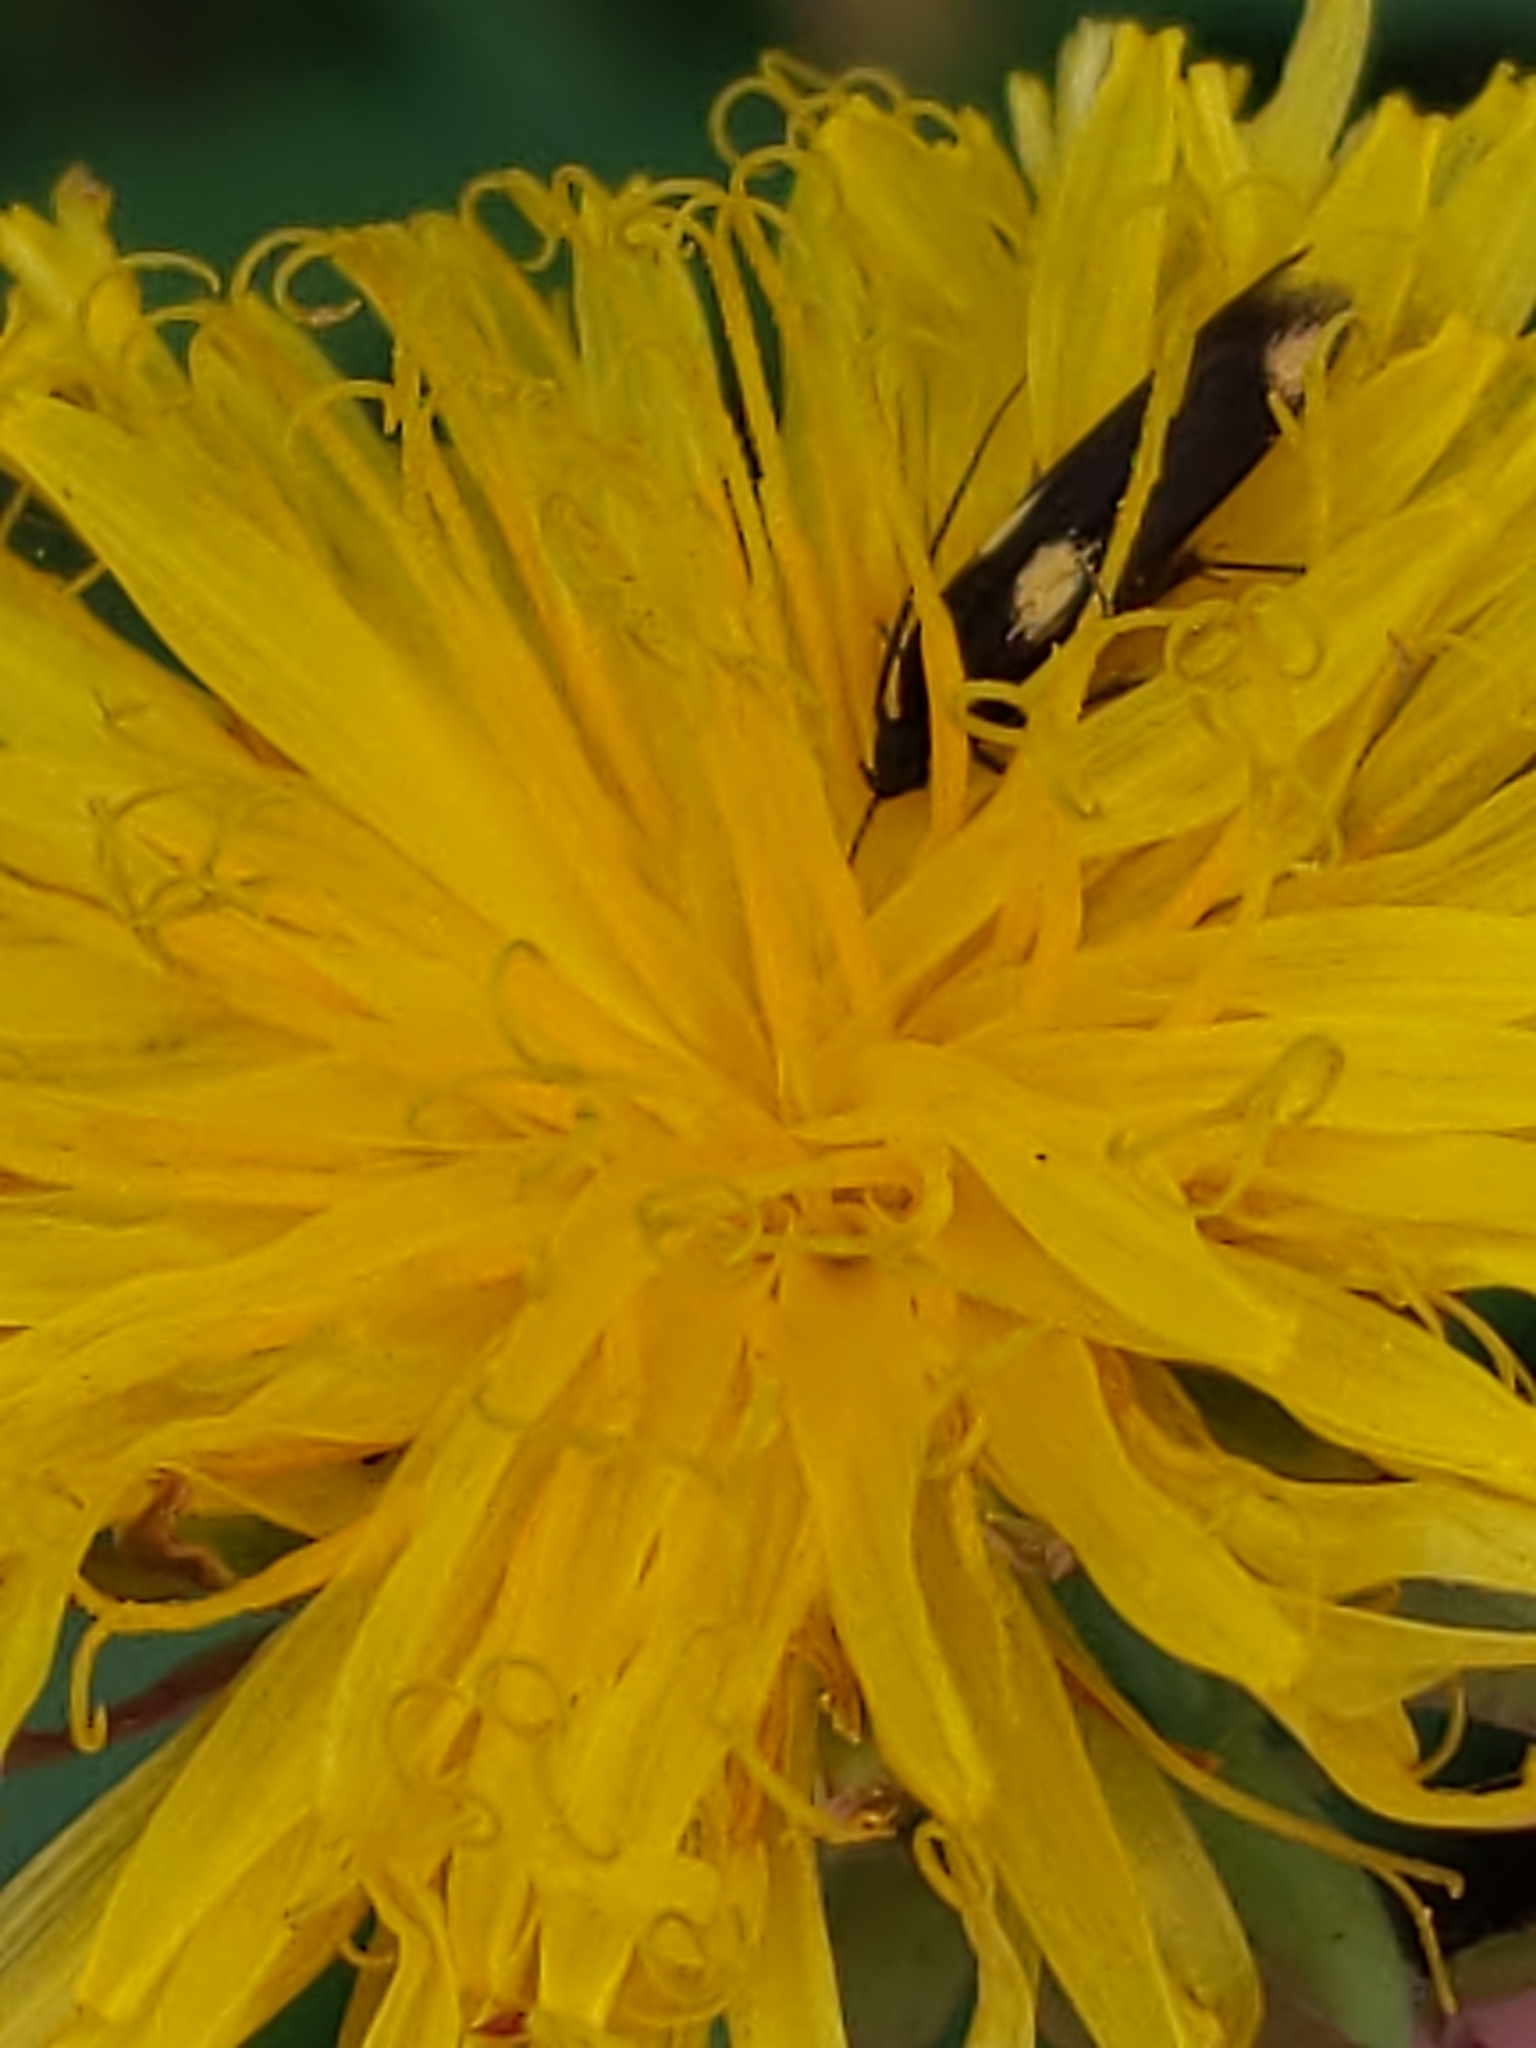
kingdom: Animalia
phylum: Arthropoda
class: Insecta
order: Lepidoptera
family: Scythrididae
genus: Scythris
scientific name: Scythris sinensis
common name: Kentish owlet
